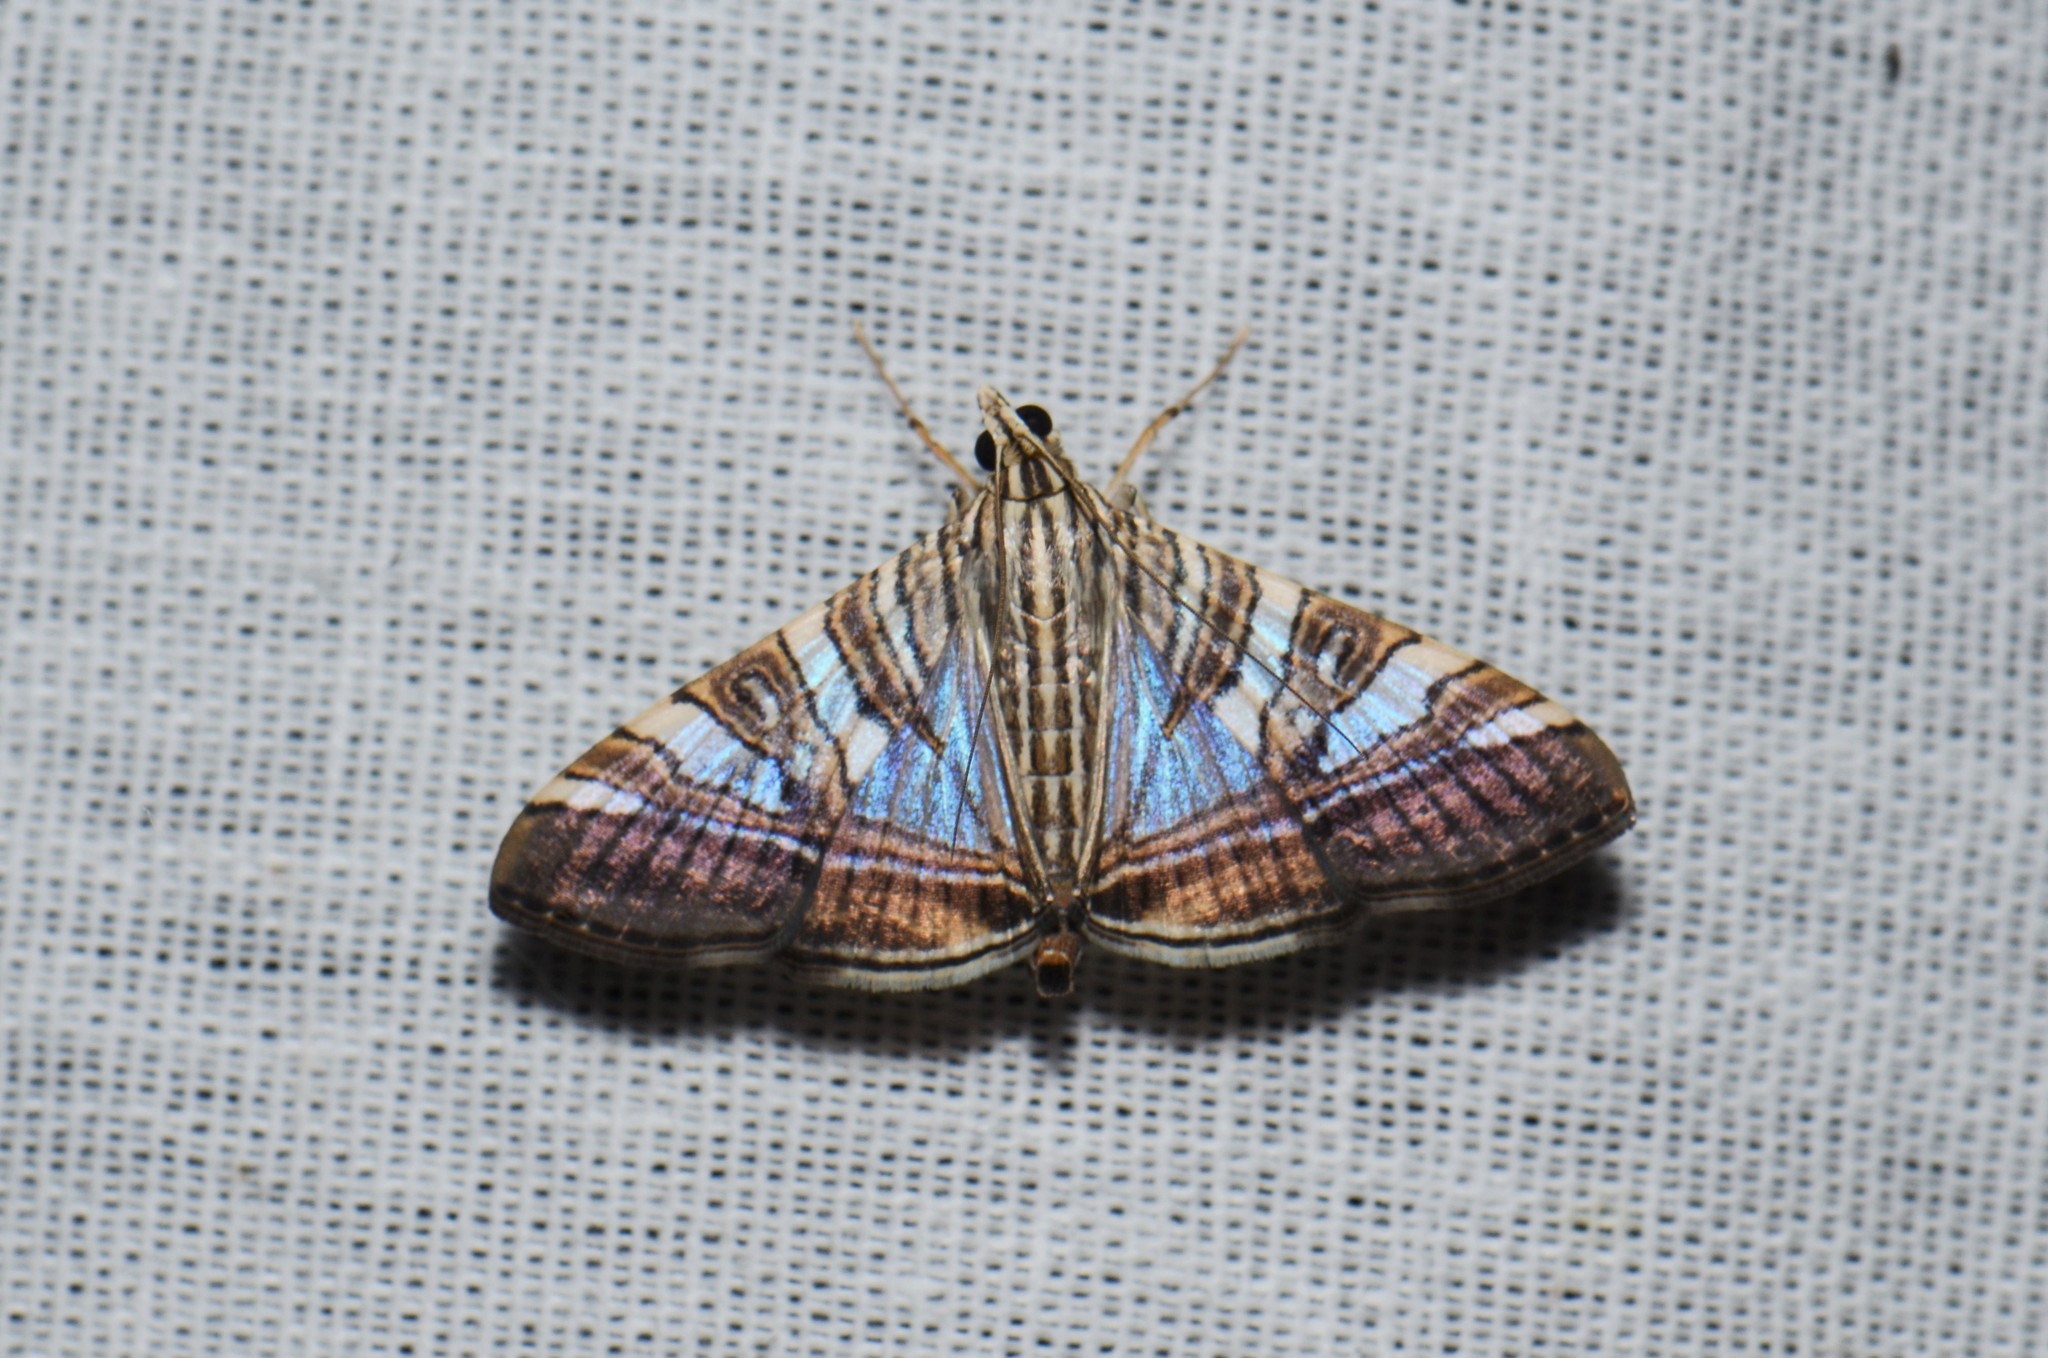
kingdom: Animalia
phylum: Arthropoda
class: Insecta
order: Lepidoptera
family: Crambidae
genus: Glyphodes
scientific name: Glyphodes stolalis
